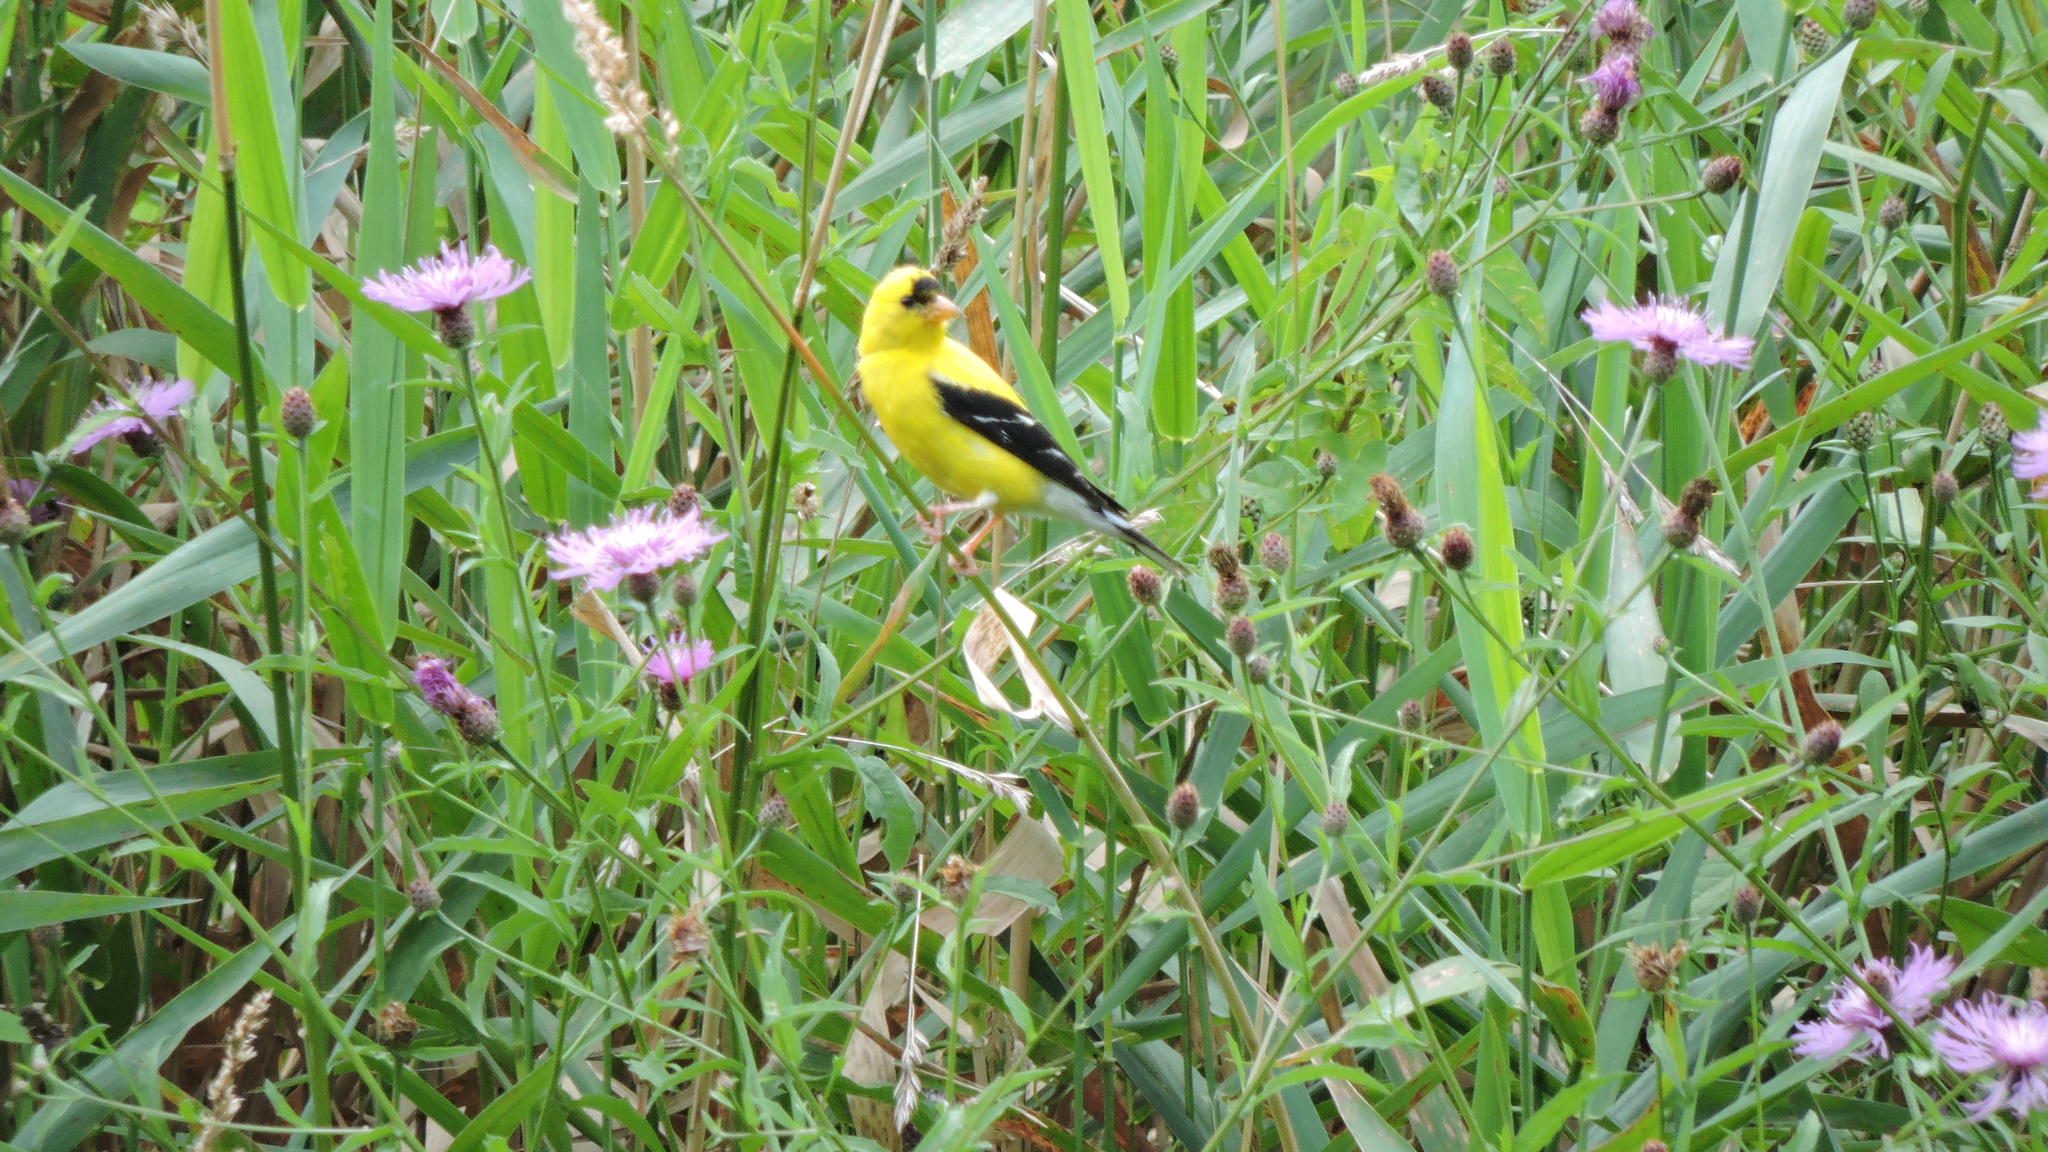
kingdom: Animalia
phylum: Chordata
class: Aves
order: Passeriformes
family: Fringillidae
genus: Spinus
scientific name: Spinus tristis
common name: American goldfinch
